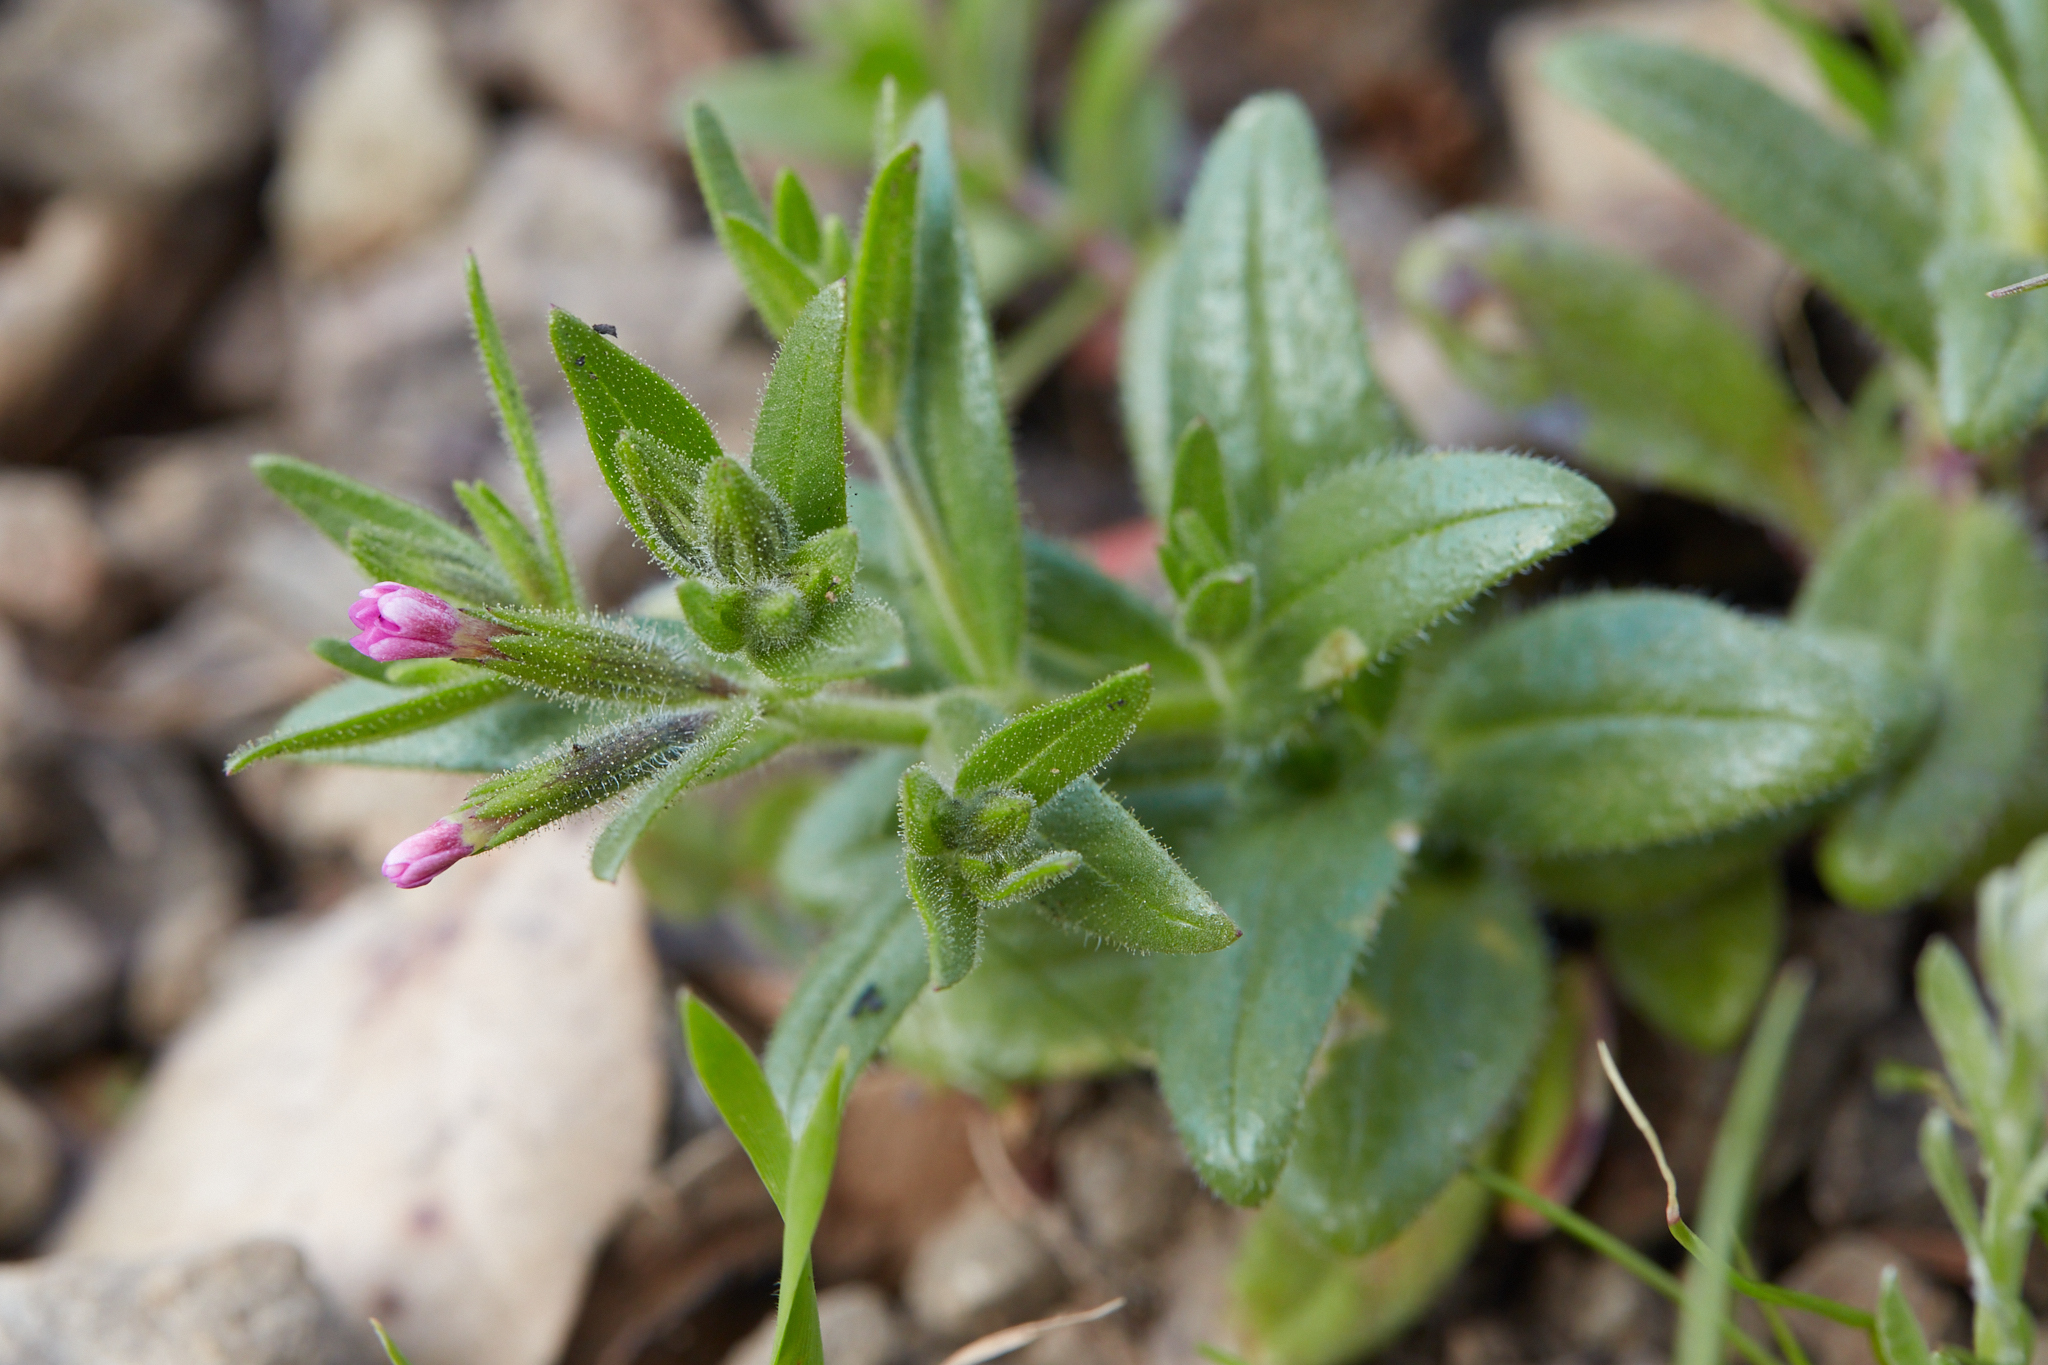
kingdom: Plantae
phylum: Tracheophyta
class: Magnoliopsida
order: Ericales
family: Polemoniaceae
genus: Phlox
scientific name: Phlox gracilis
